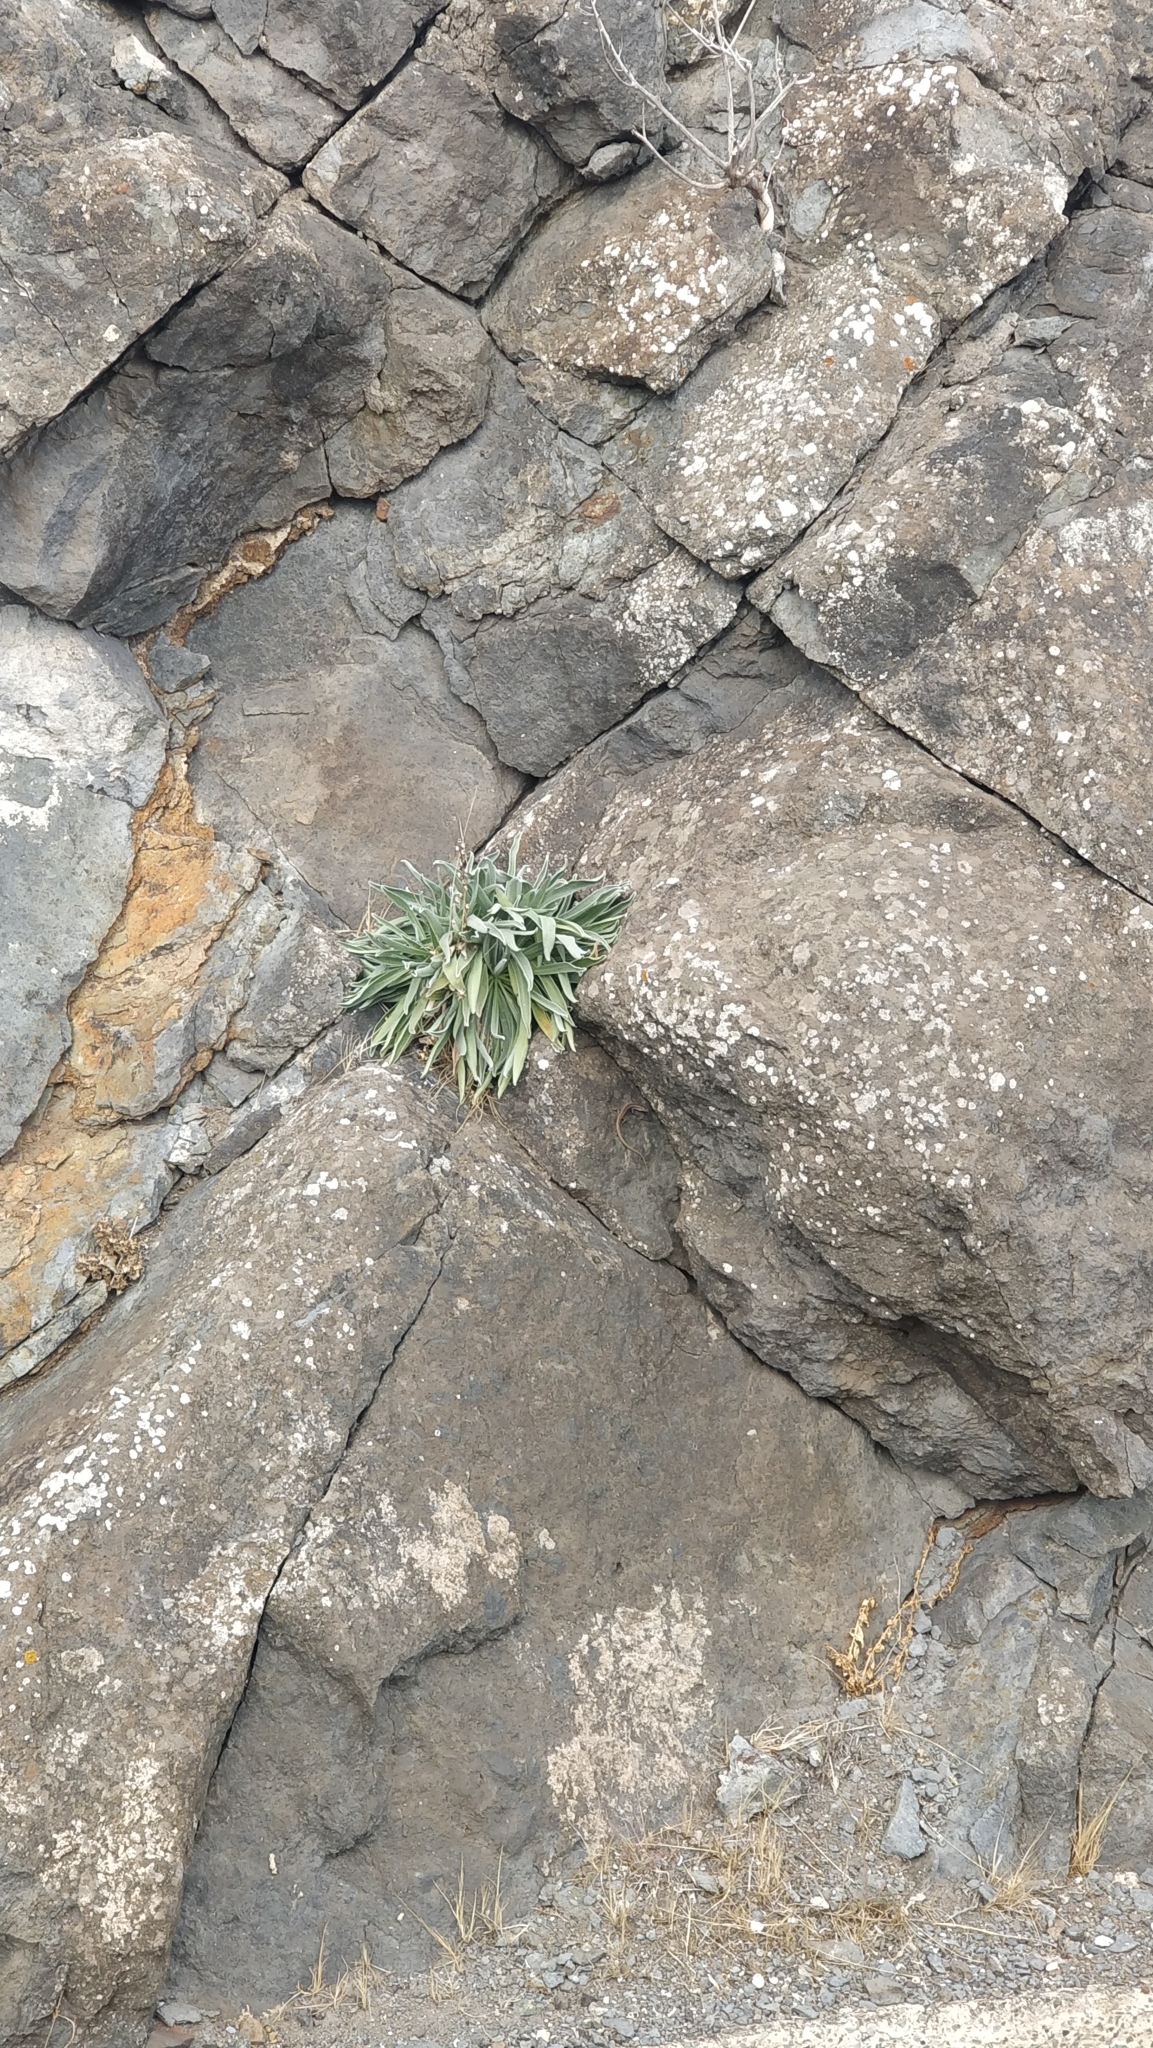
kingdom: Plantae
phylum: Tracheophyta
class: Magnoliopsida
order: Brassicales
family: Brassicaceae
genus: Matthiola
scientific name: Matthiola maderensis
